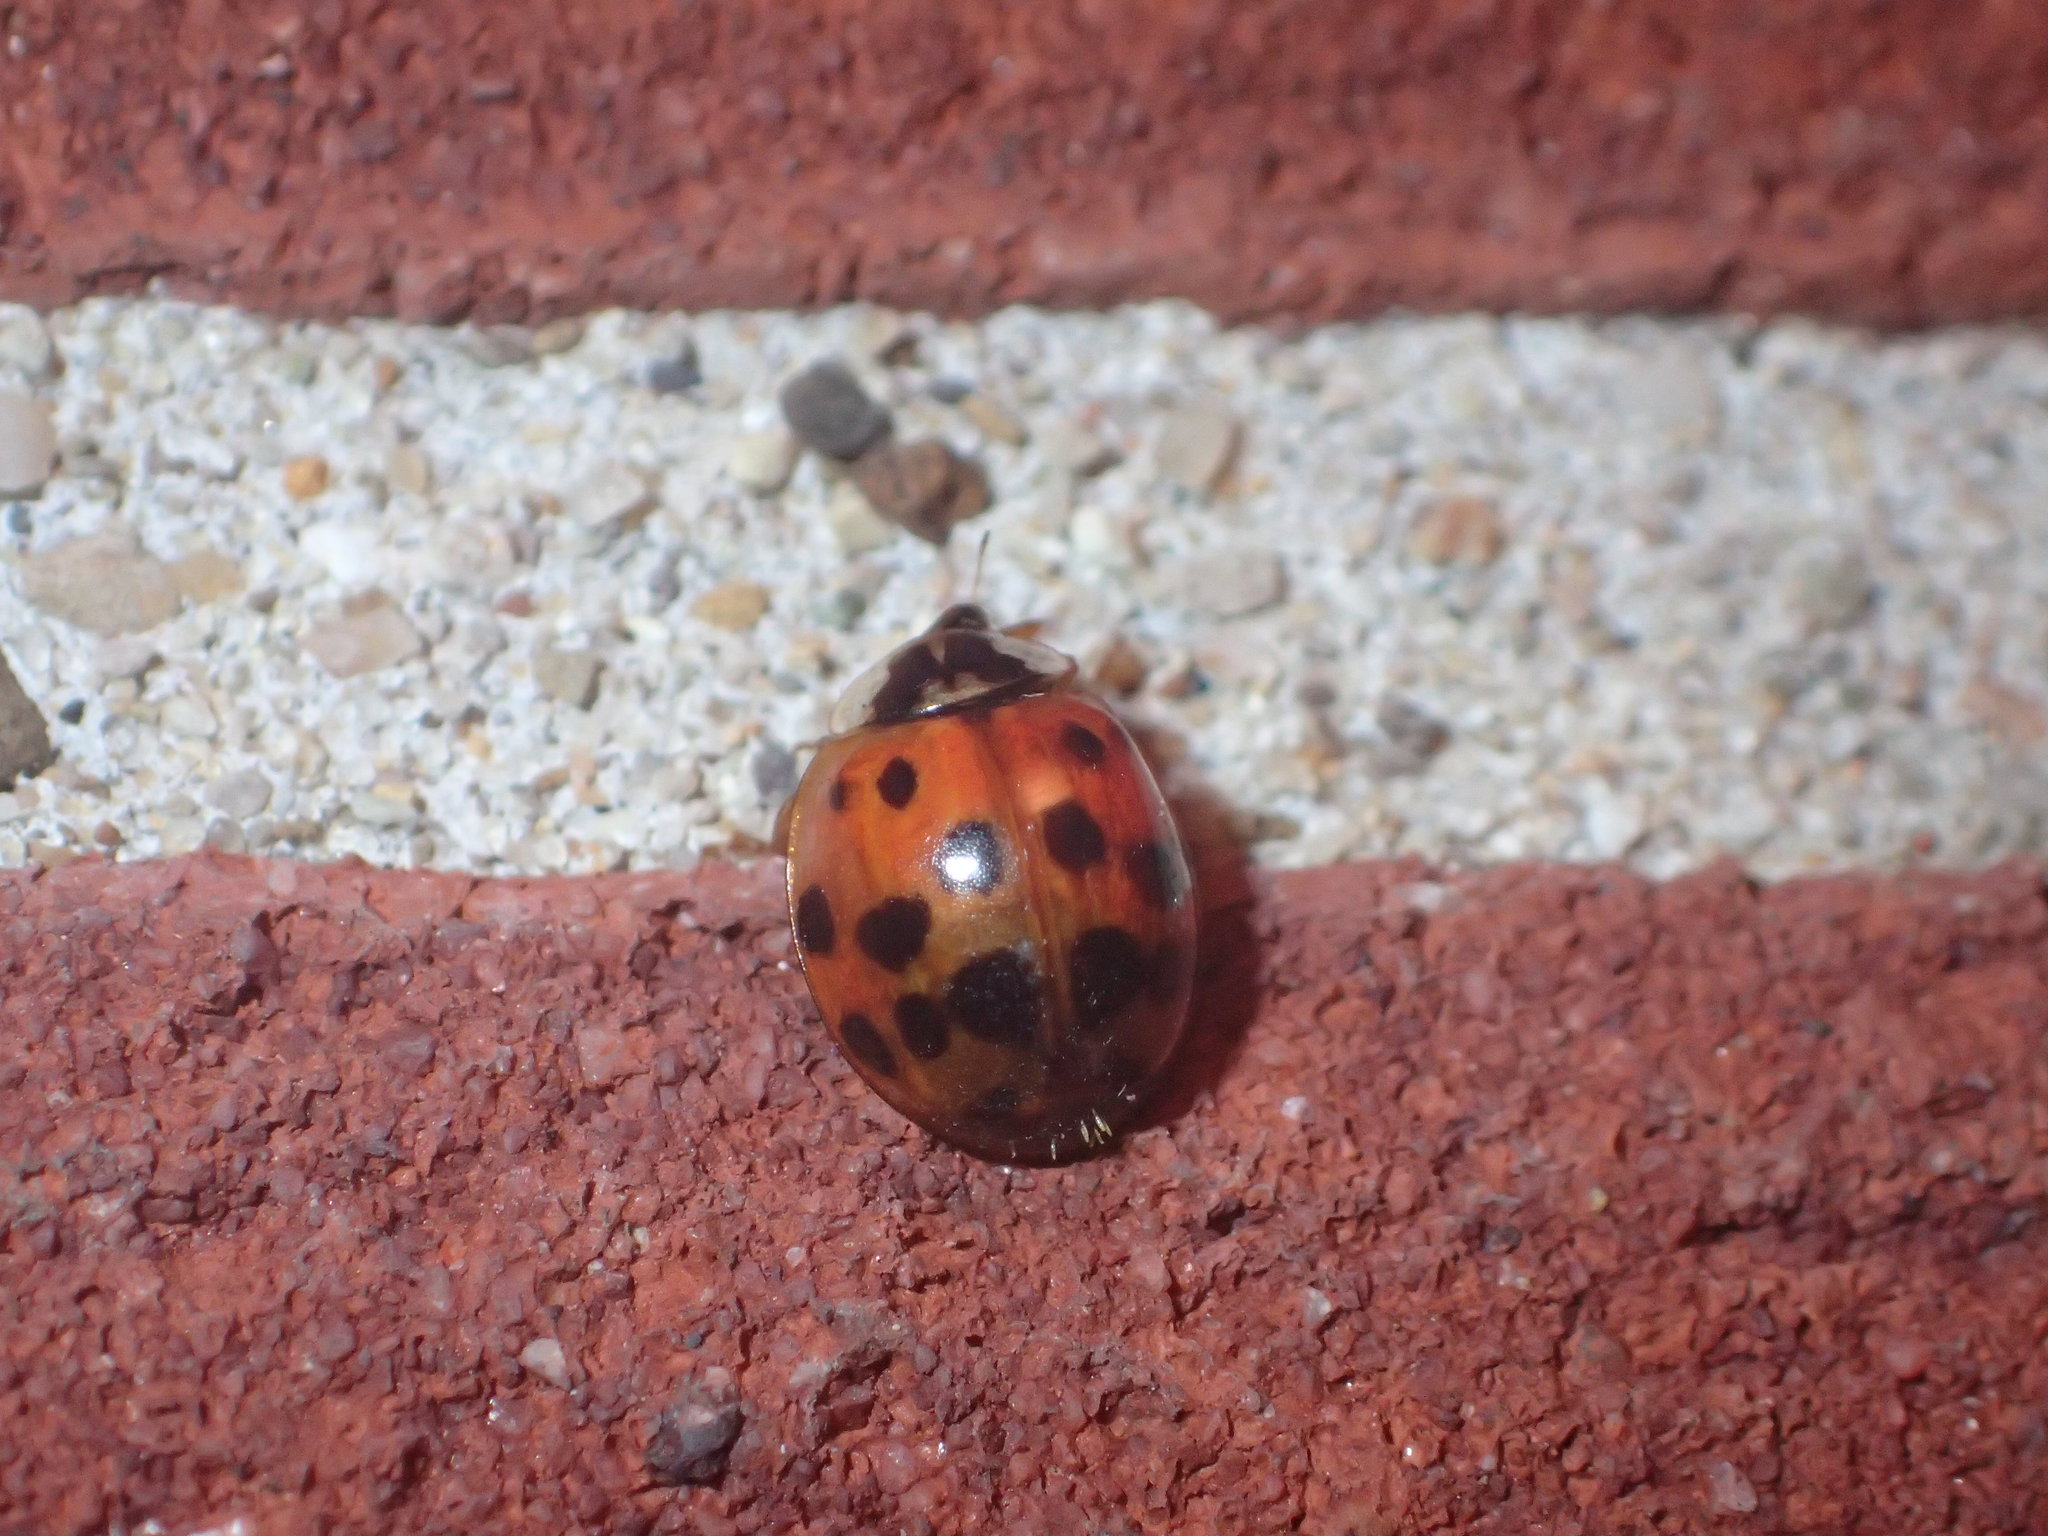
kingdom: Animalia
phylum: Arthropoda
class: Insecta
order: Coleoptera
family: Coccinellidae
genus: Harmonia
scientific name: Harmonia axyridis
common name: Harlequin ladybird
